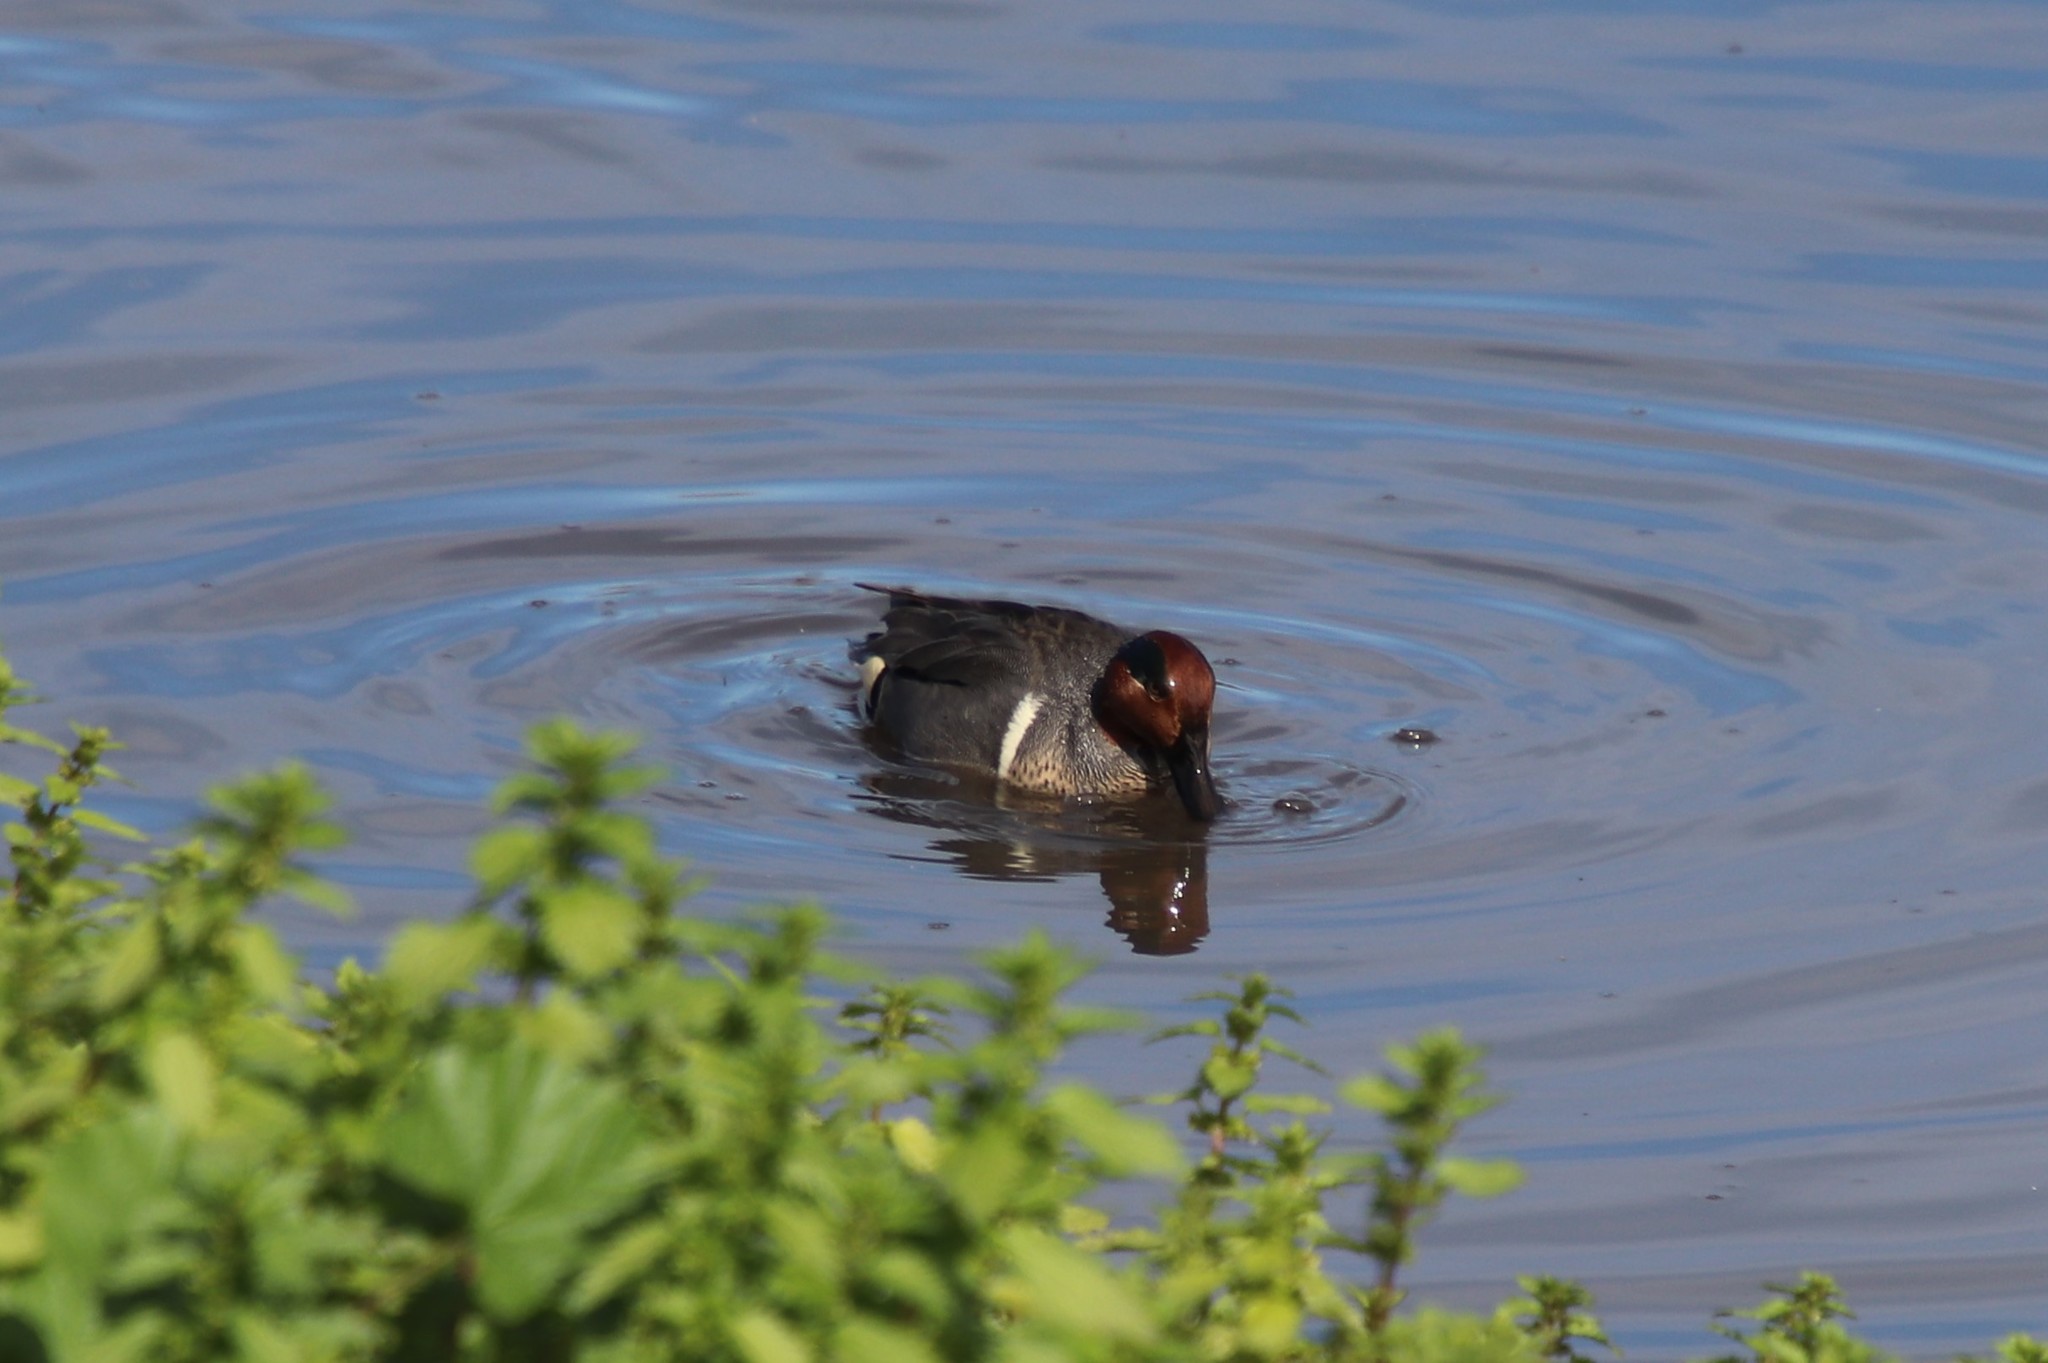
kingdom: Animalia
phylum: Chordata
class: Aves
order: Anseriformes
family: Anatidae
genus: Anas
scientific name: Anas crecca
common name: Eurasian teal
